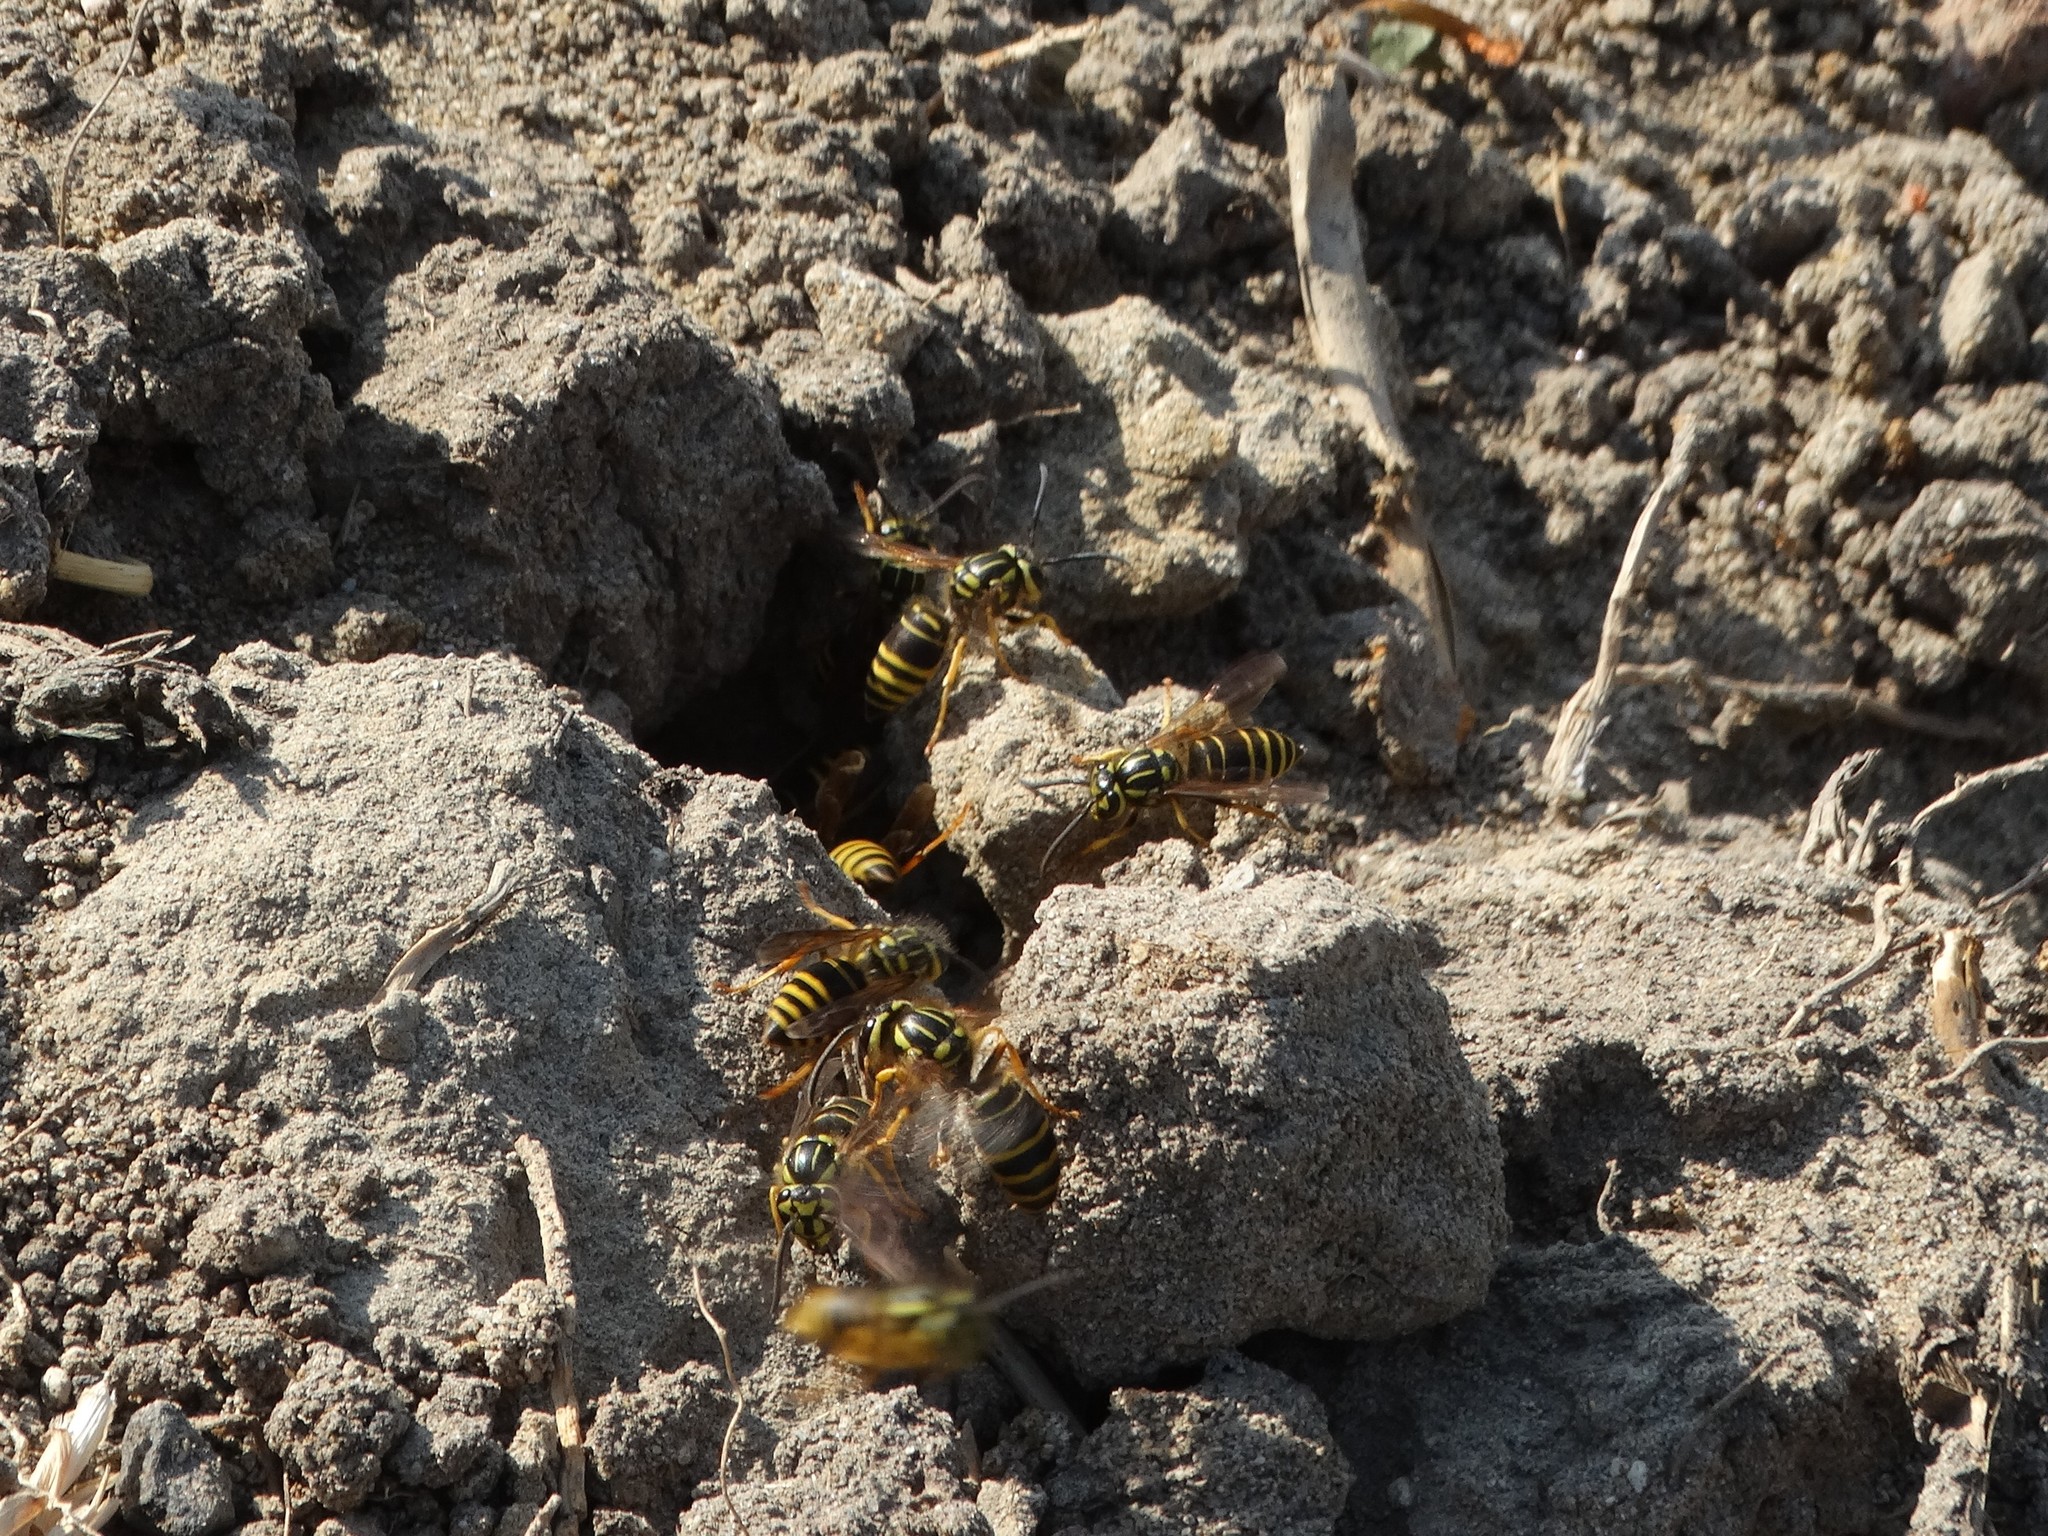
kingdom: Animalia
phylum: Arthropoda
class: Insecta
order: Hymenoptera
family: Vespidae
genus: Vespula
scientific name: Vespula squamosa
